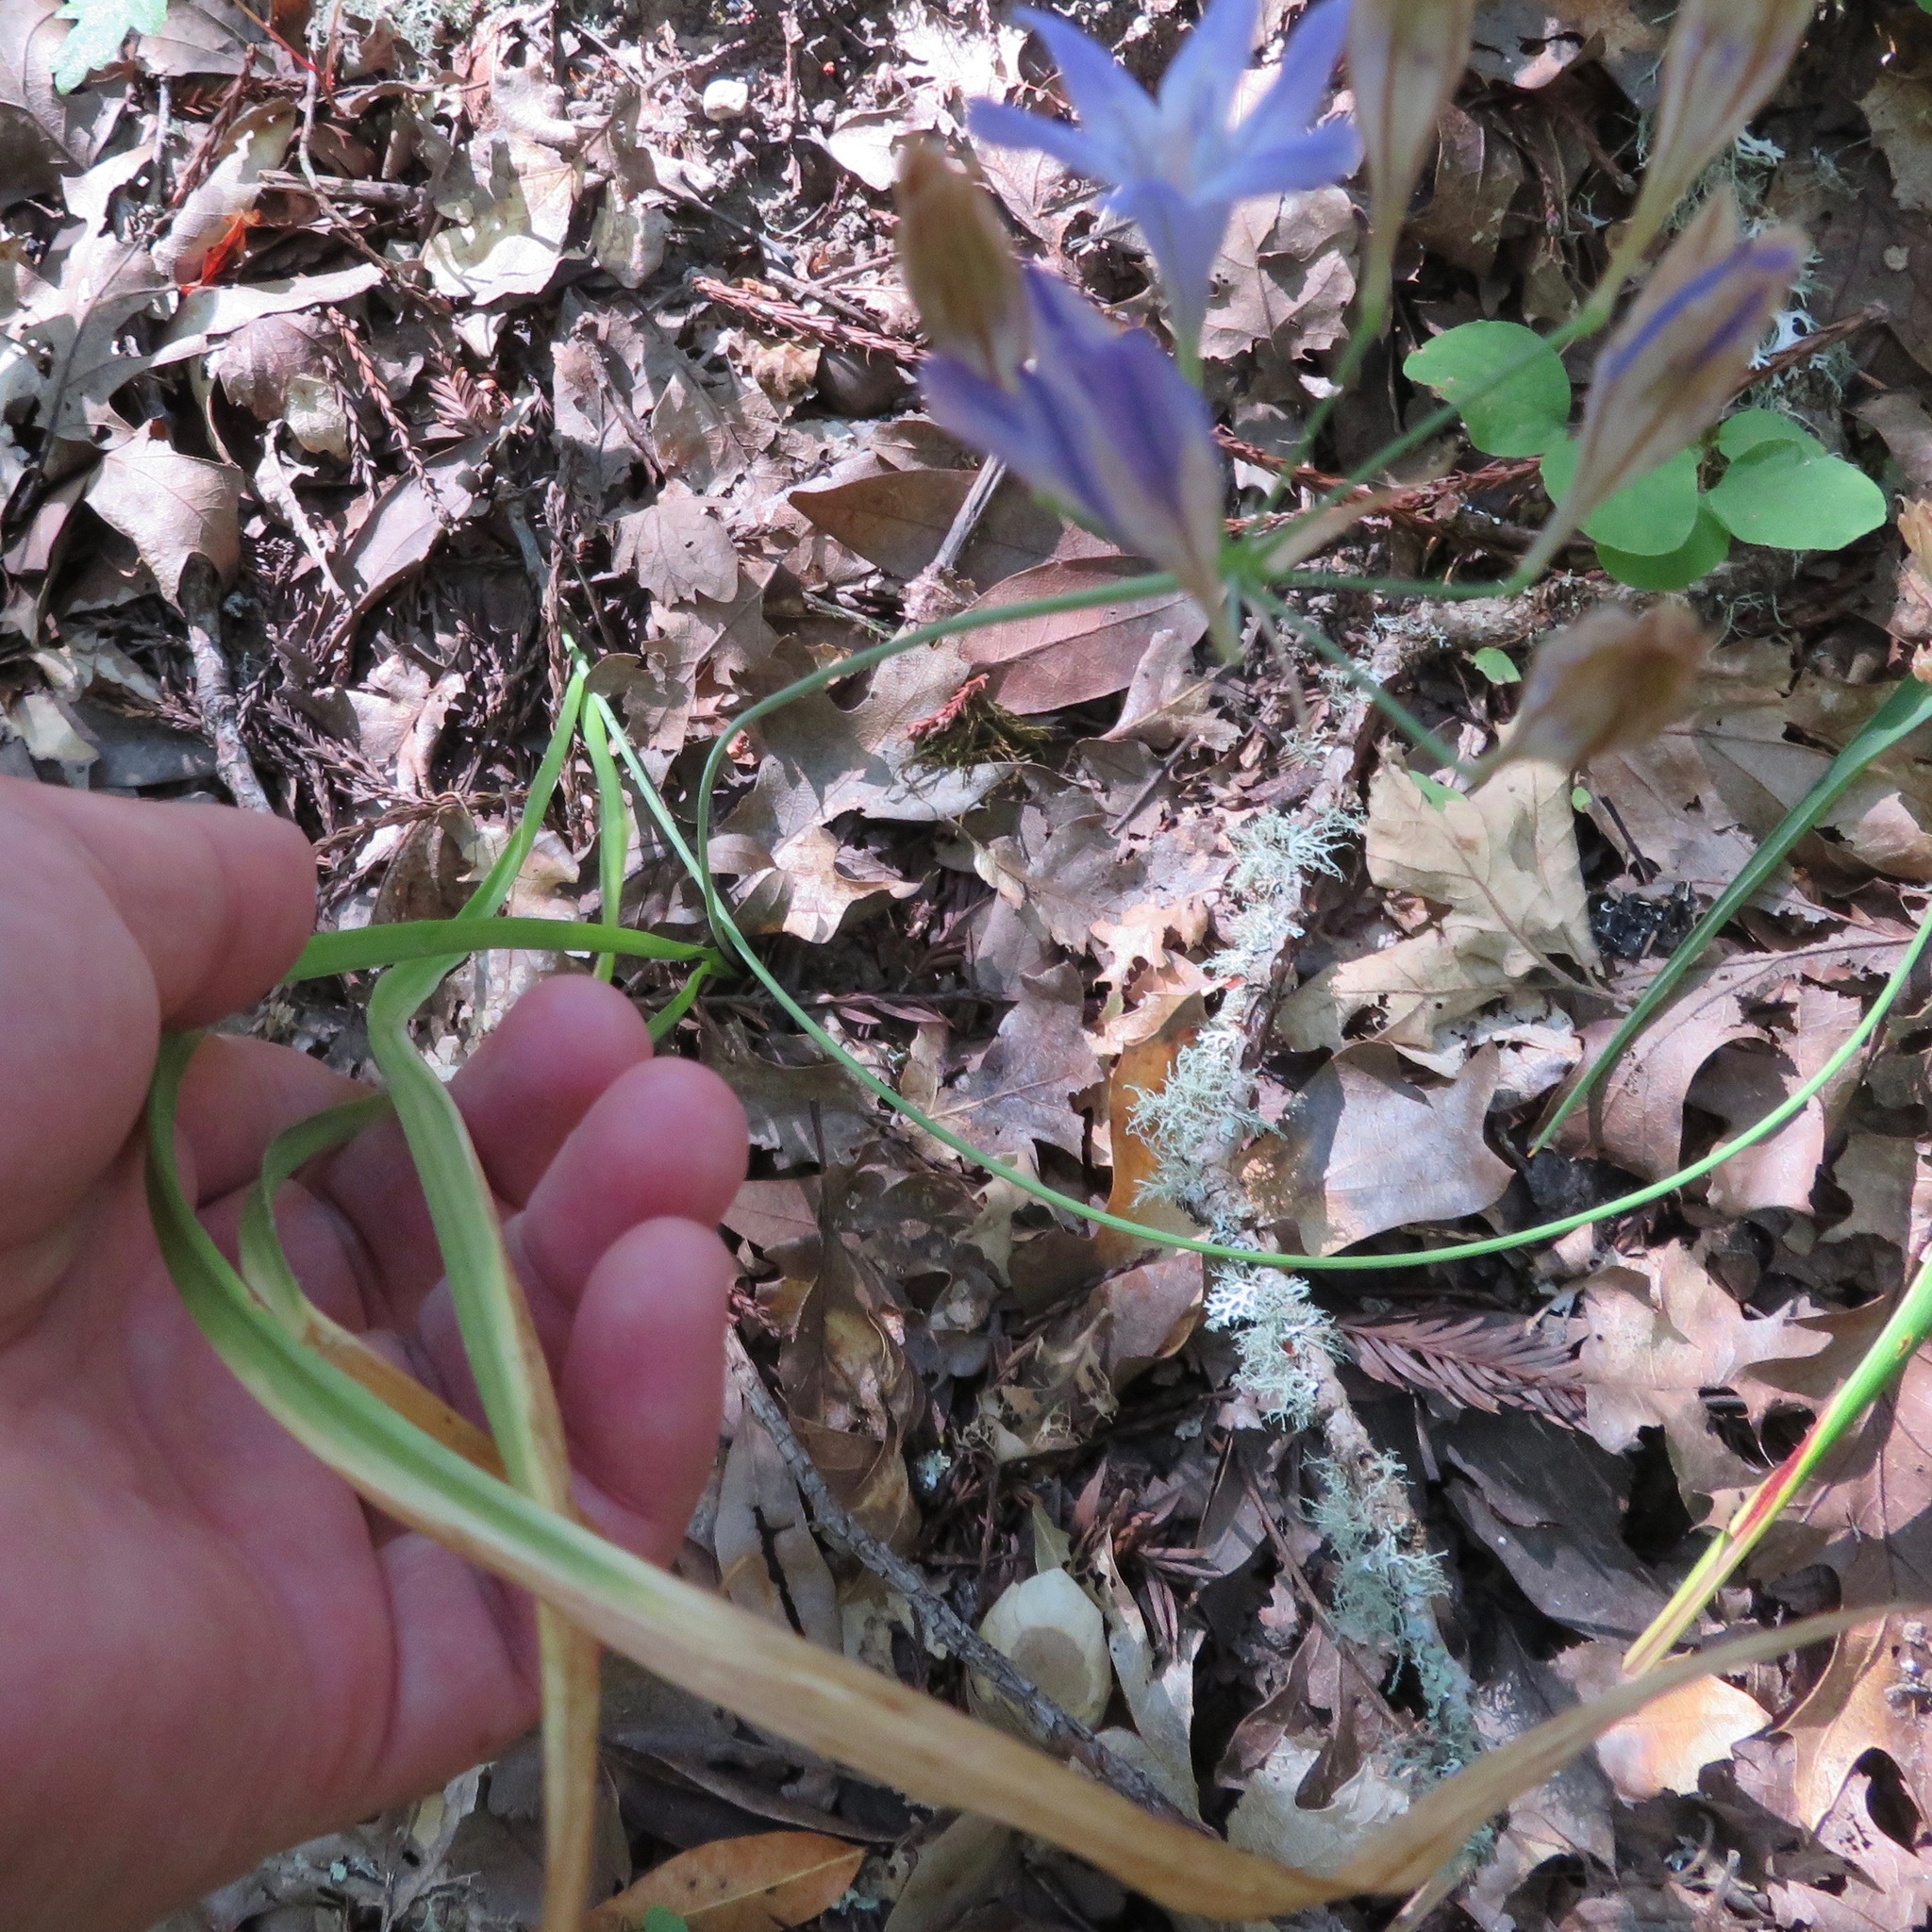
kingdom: Plantae
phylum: Tracheophyta
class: Liliopsida
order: Asparagales
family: Asparagaceae
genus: Triteleia
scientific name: Triteleia laxa
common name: Triplet-lily
